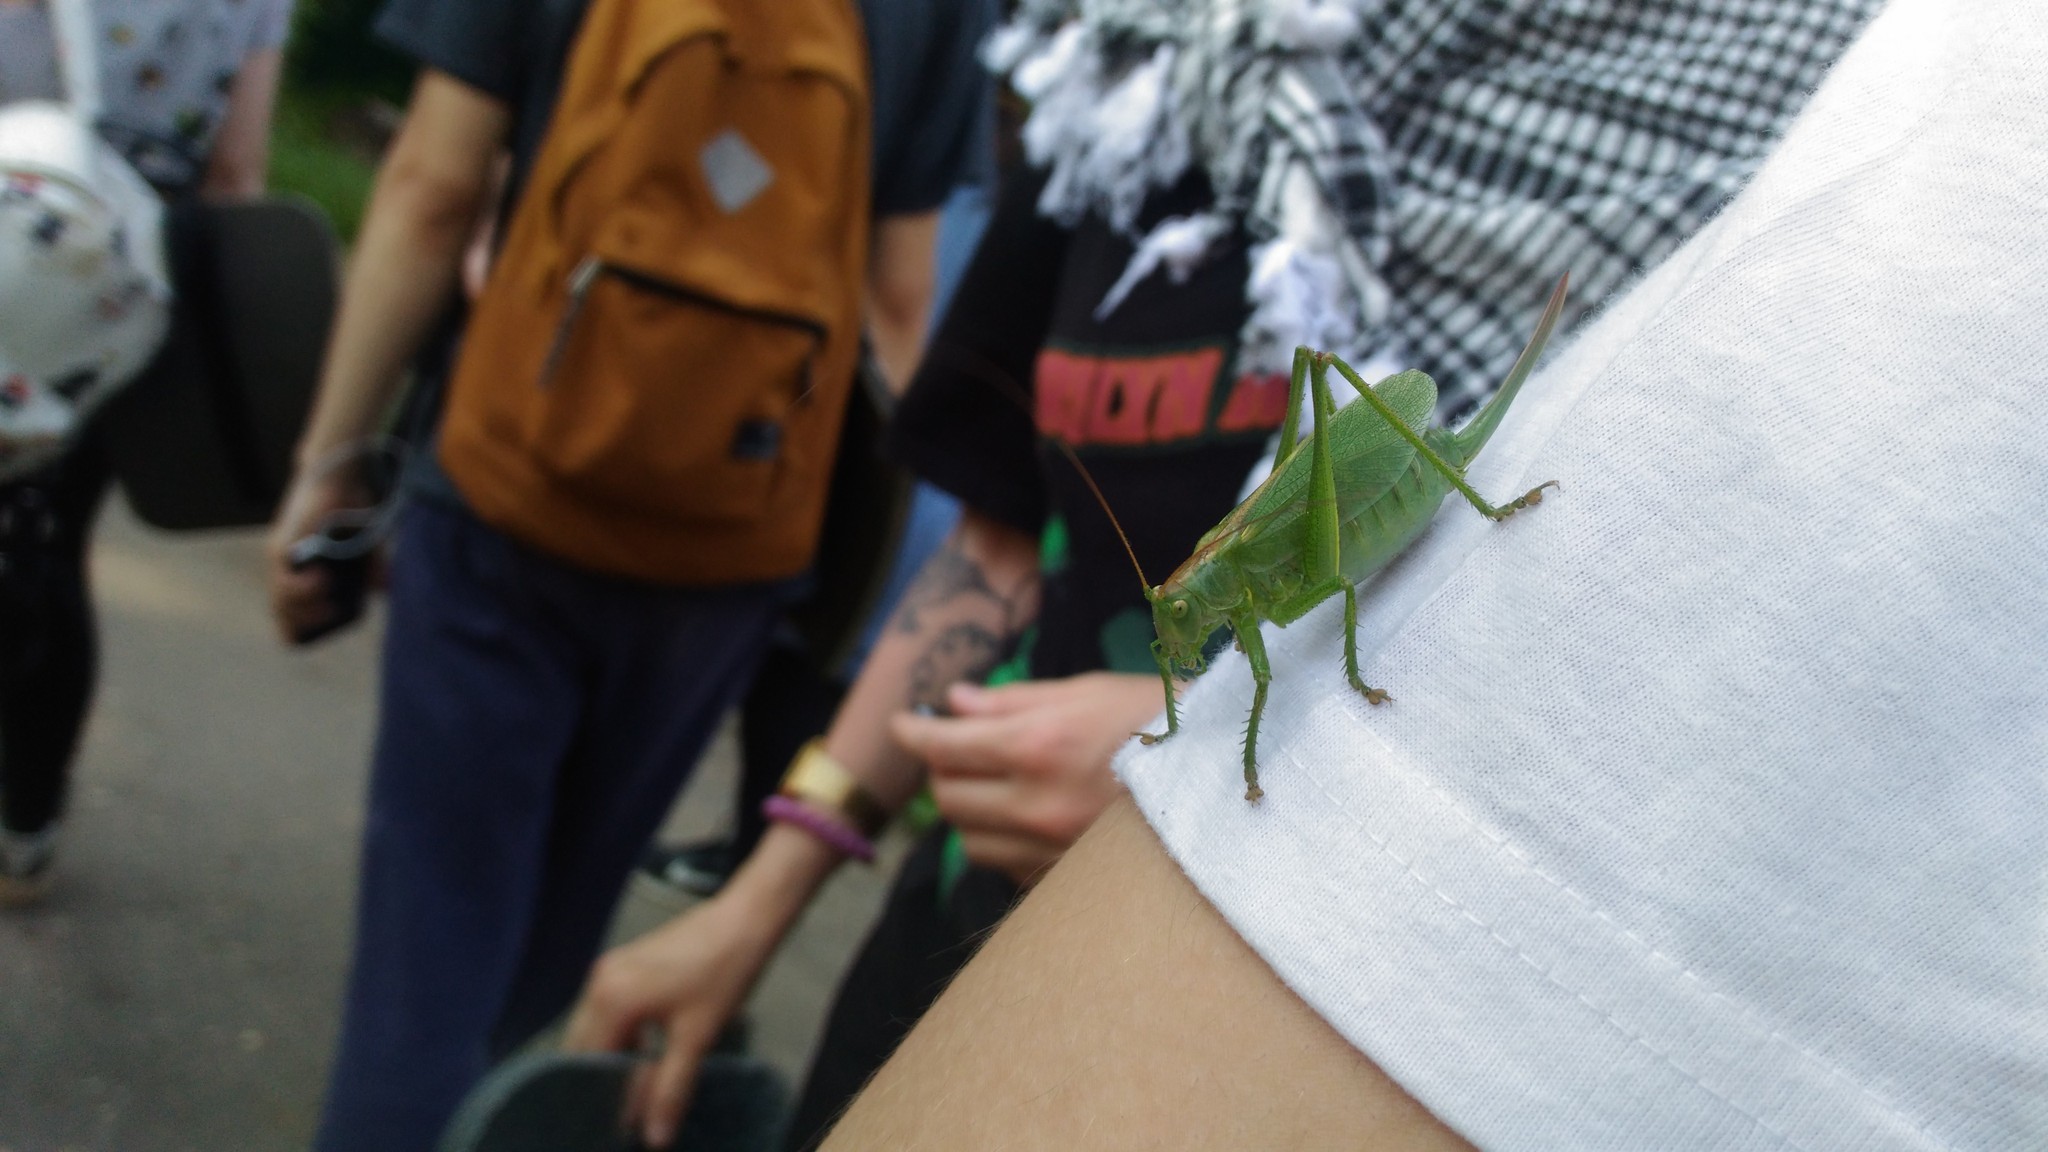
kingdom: Animalia
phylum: Arthropoda
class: Insecta
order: Orthoptera
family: Tettigoniidae
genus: Tettigonia
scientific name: Tettigonia cantans
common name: Upland green bush-cricket
